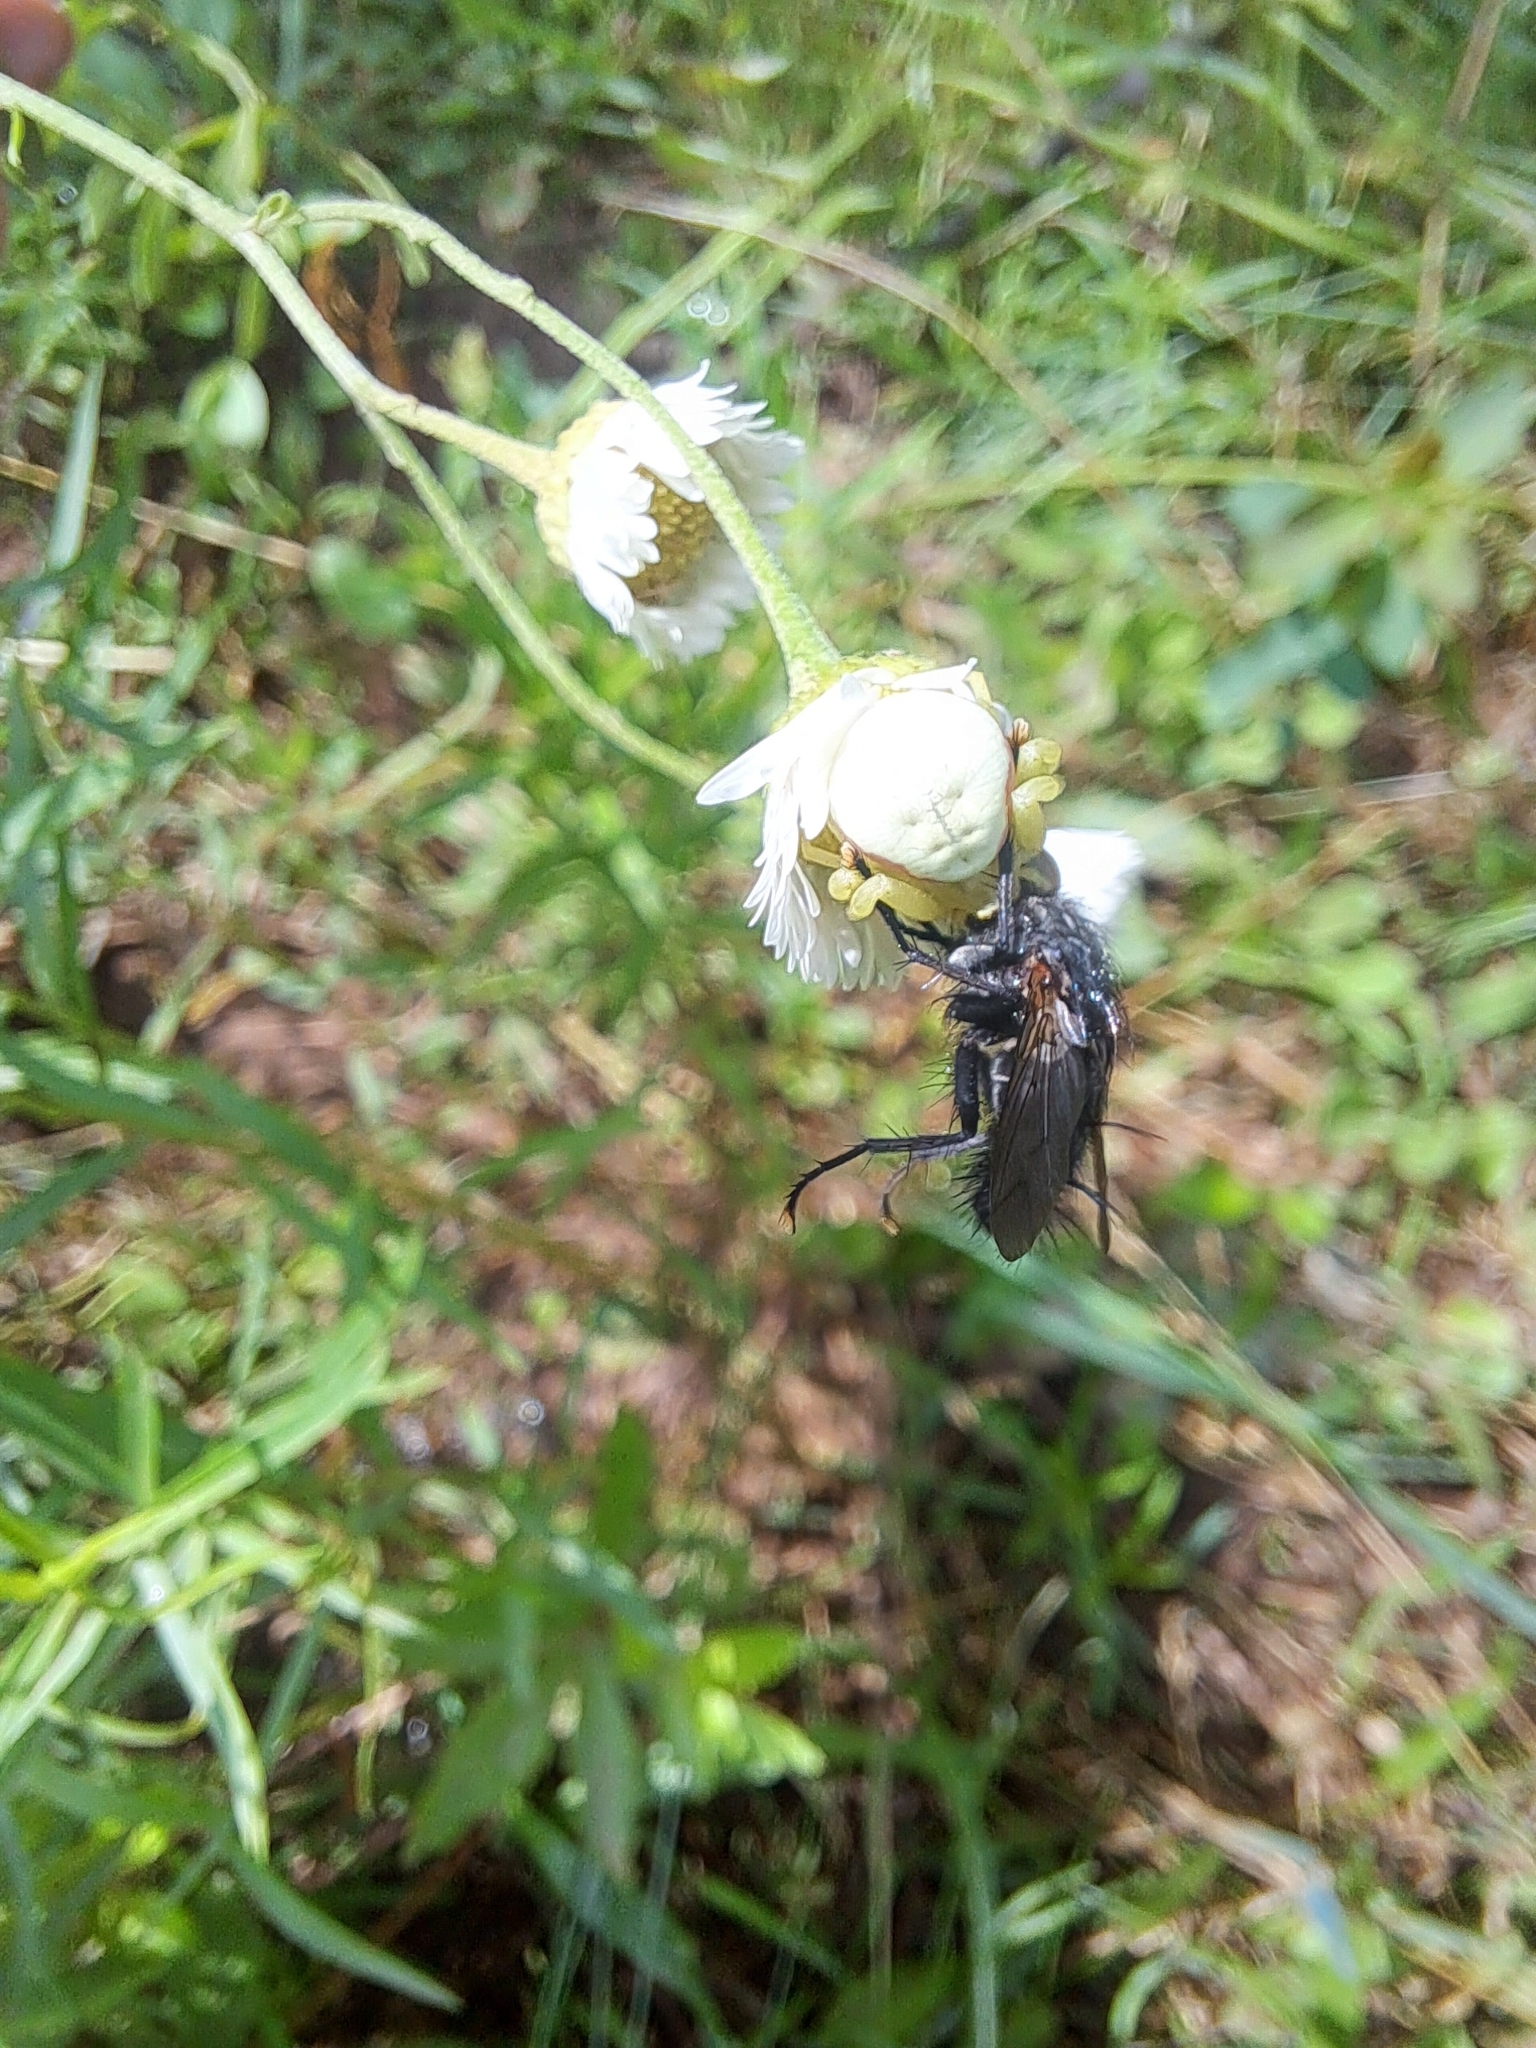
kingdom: Animalia
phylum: Arthropoda
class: Arachnida
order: Araneae
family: Thomisidae
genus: Misumena
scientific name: Misumena vatia
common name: Goldenrod crab spider
